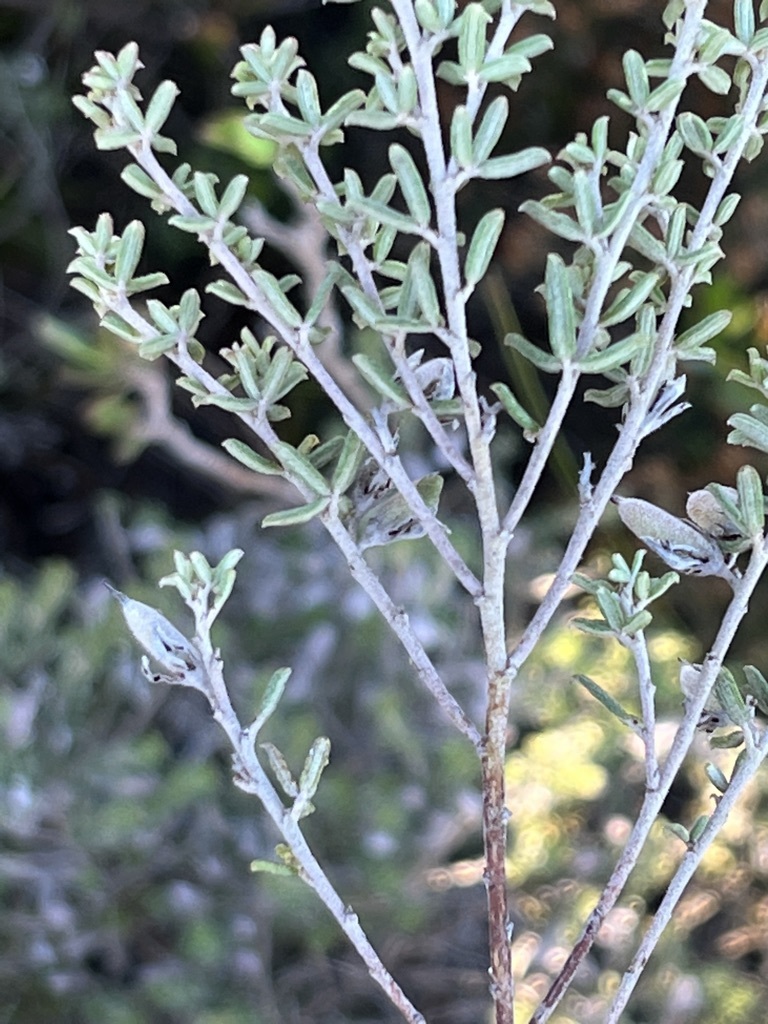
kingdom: Plantae
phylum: Tracheophyta
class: Magnoliopsida
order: Fabales
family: Fabaceae
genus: Indigofera
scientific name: Indigofera
